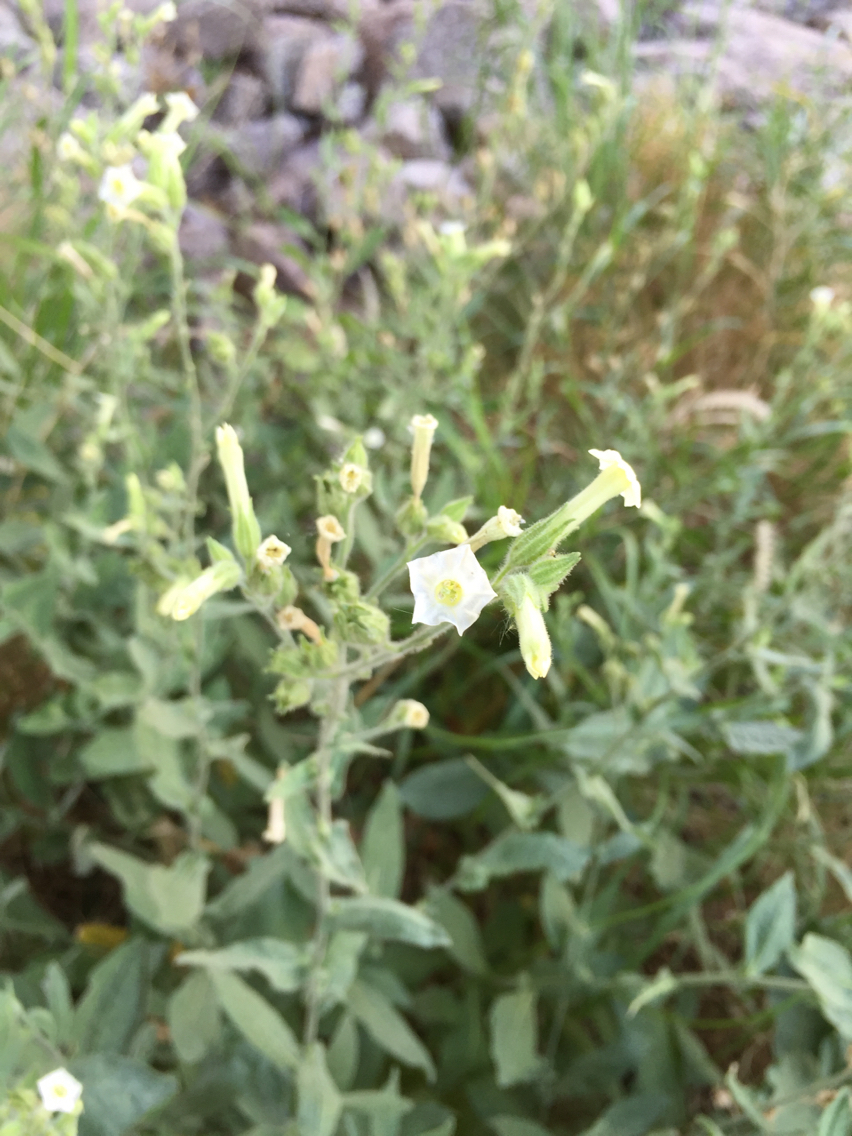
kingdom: Plantae
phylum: Tracheophyta
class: Magnoliopsida
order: Solanales
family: Solanaceae
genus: Nicotiana
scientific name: Nicotiana obtusifolia
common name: Desert tobacco
